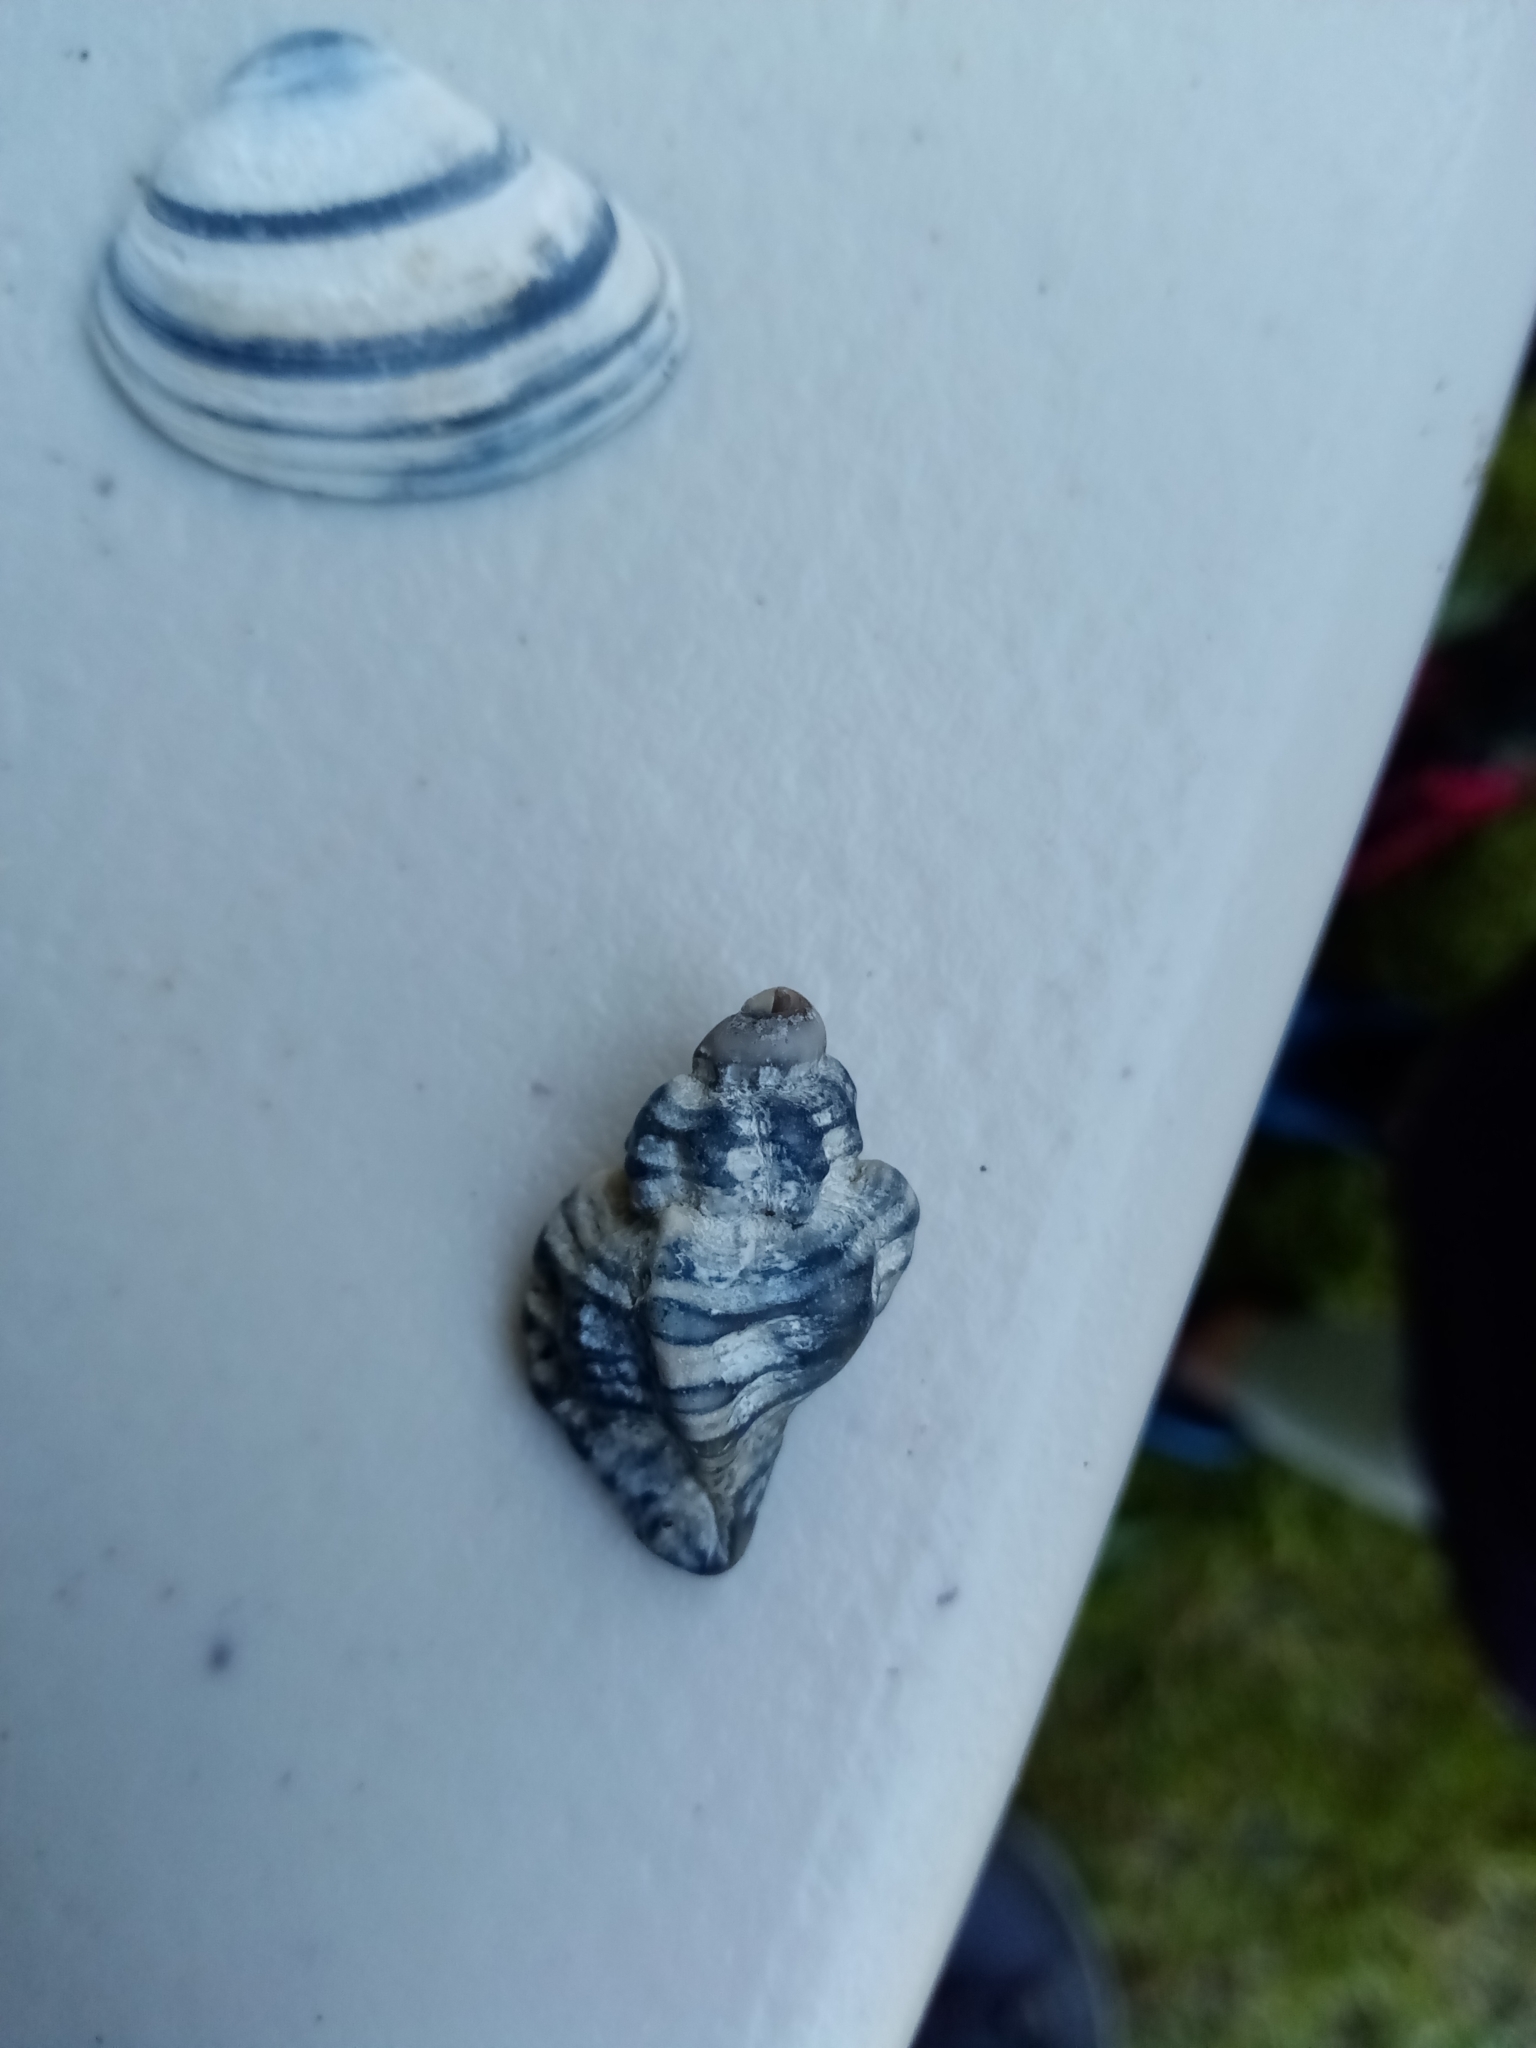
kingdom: Animalia
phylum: Mollusca
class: Gastropoda
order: Neogastropoda
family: Muricidae
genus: Ocenebra
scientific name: Ocenebra erinaceus
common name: European sting winkle
